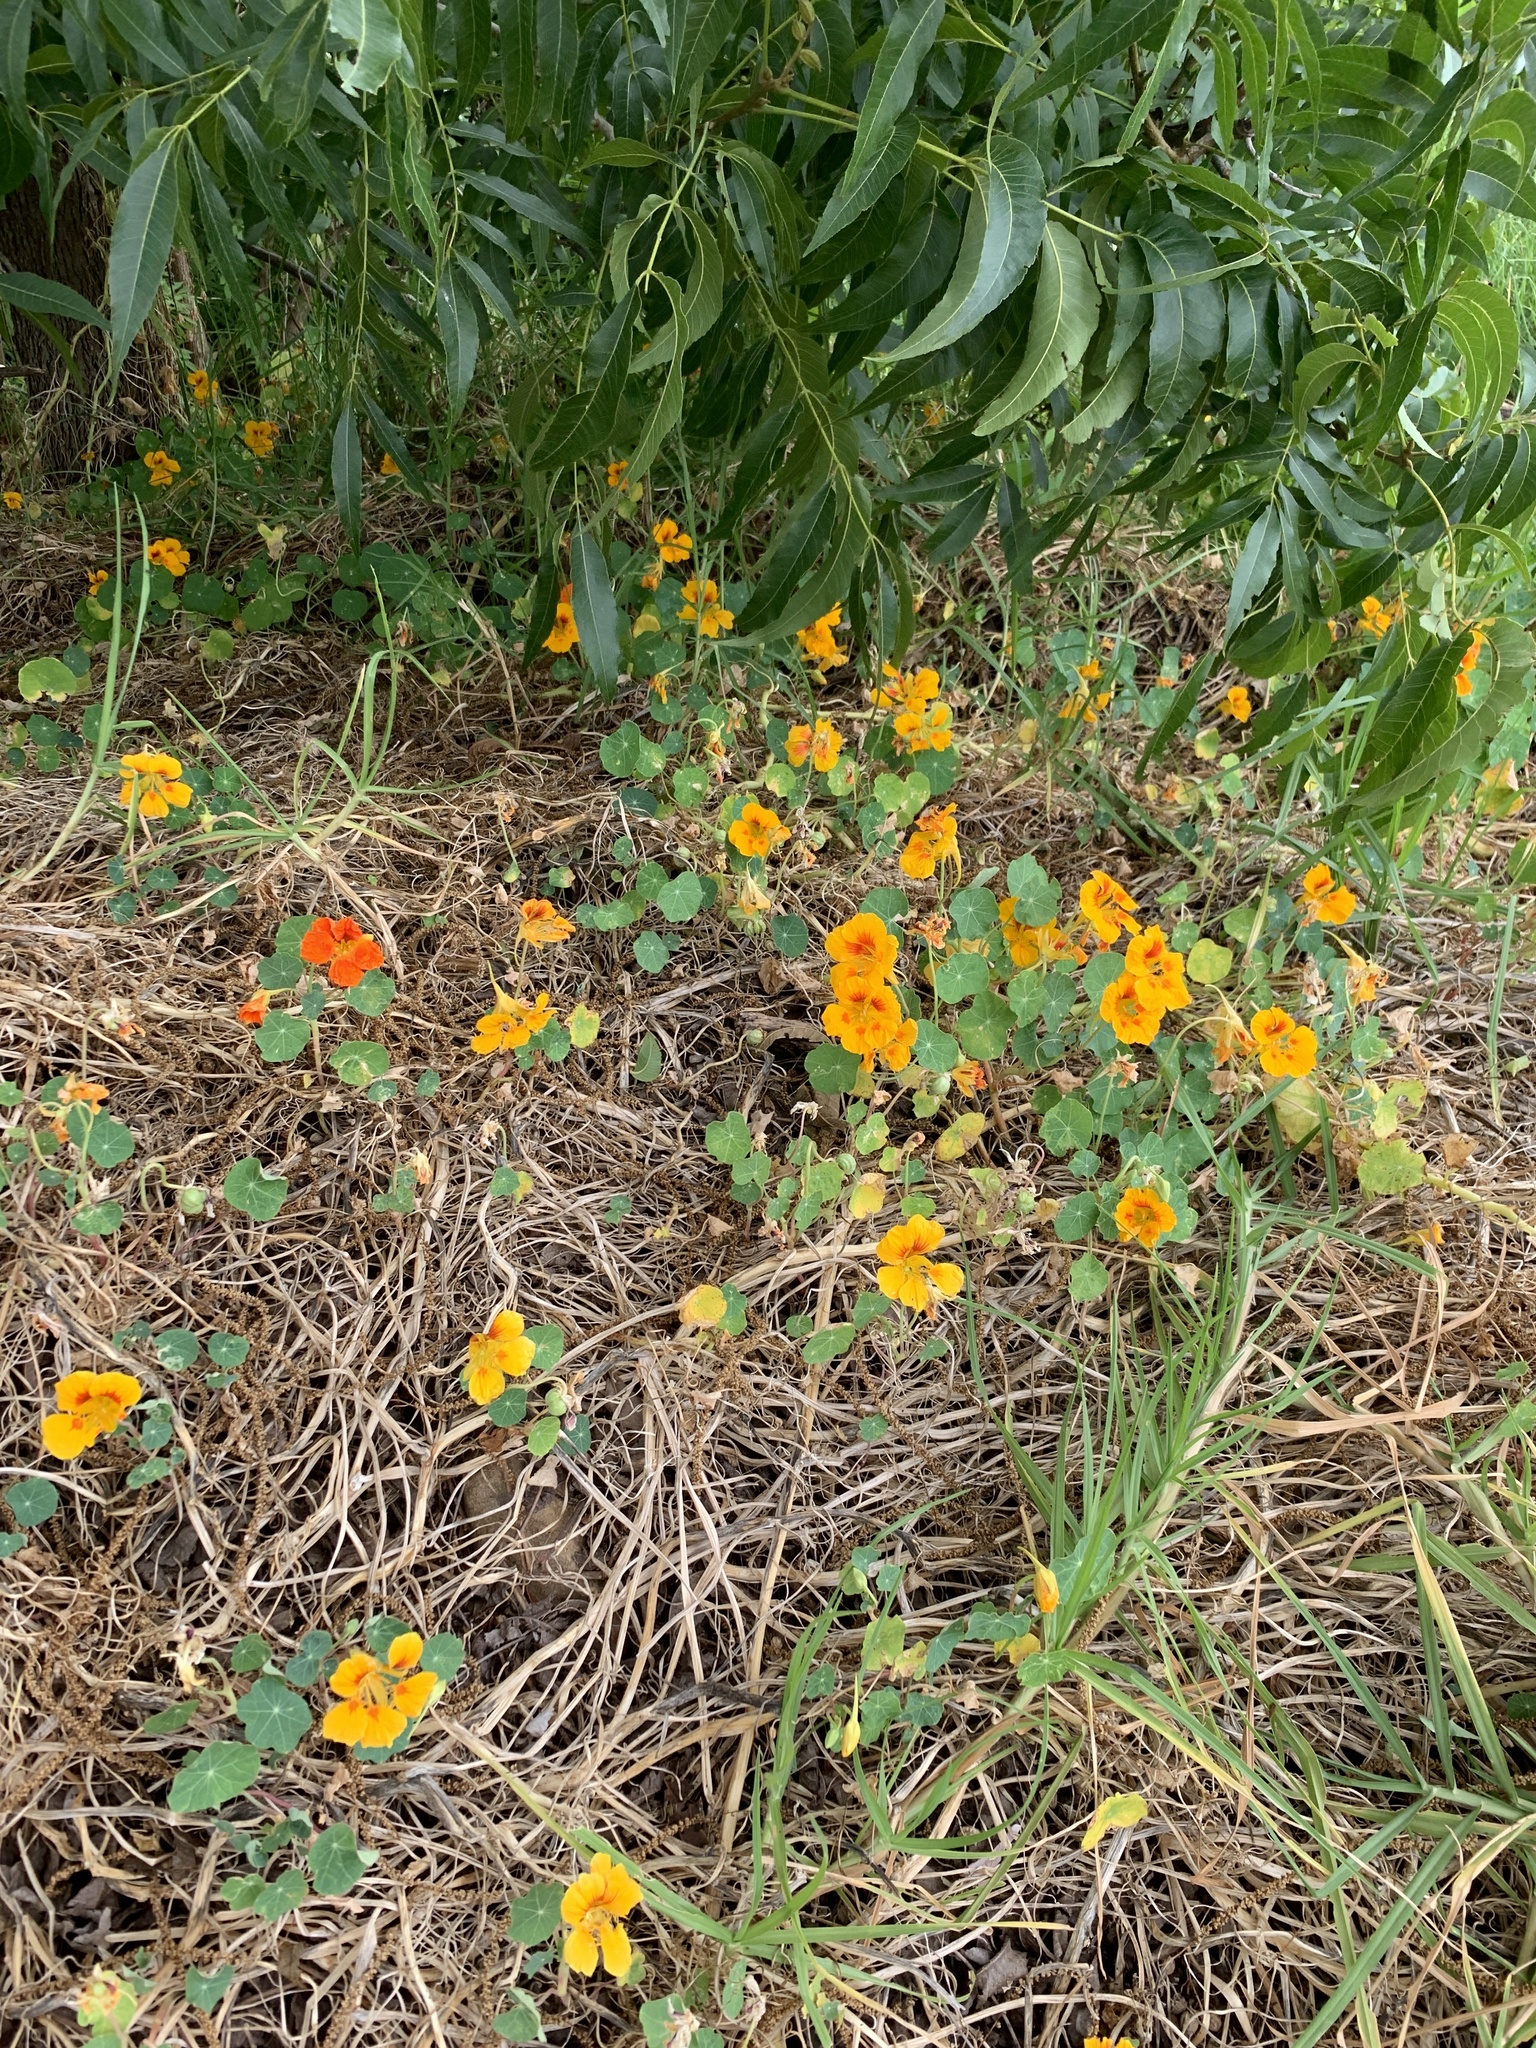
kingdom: Plantae
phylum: Tracheophyta
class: Magnoliopsida
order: Brassicales
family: Tropaeolaceae
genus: Tropaeolum
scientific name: Tropaeolum majus
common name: Nasturtium
